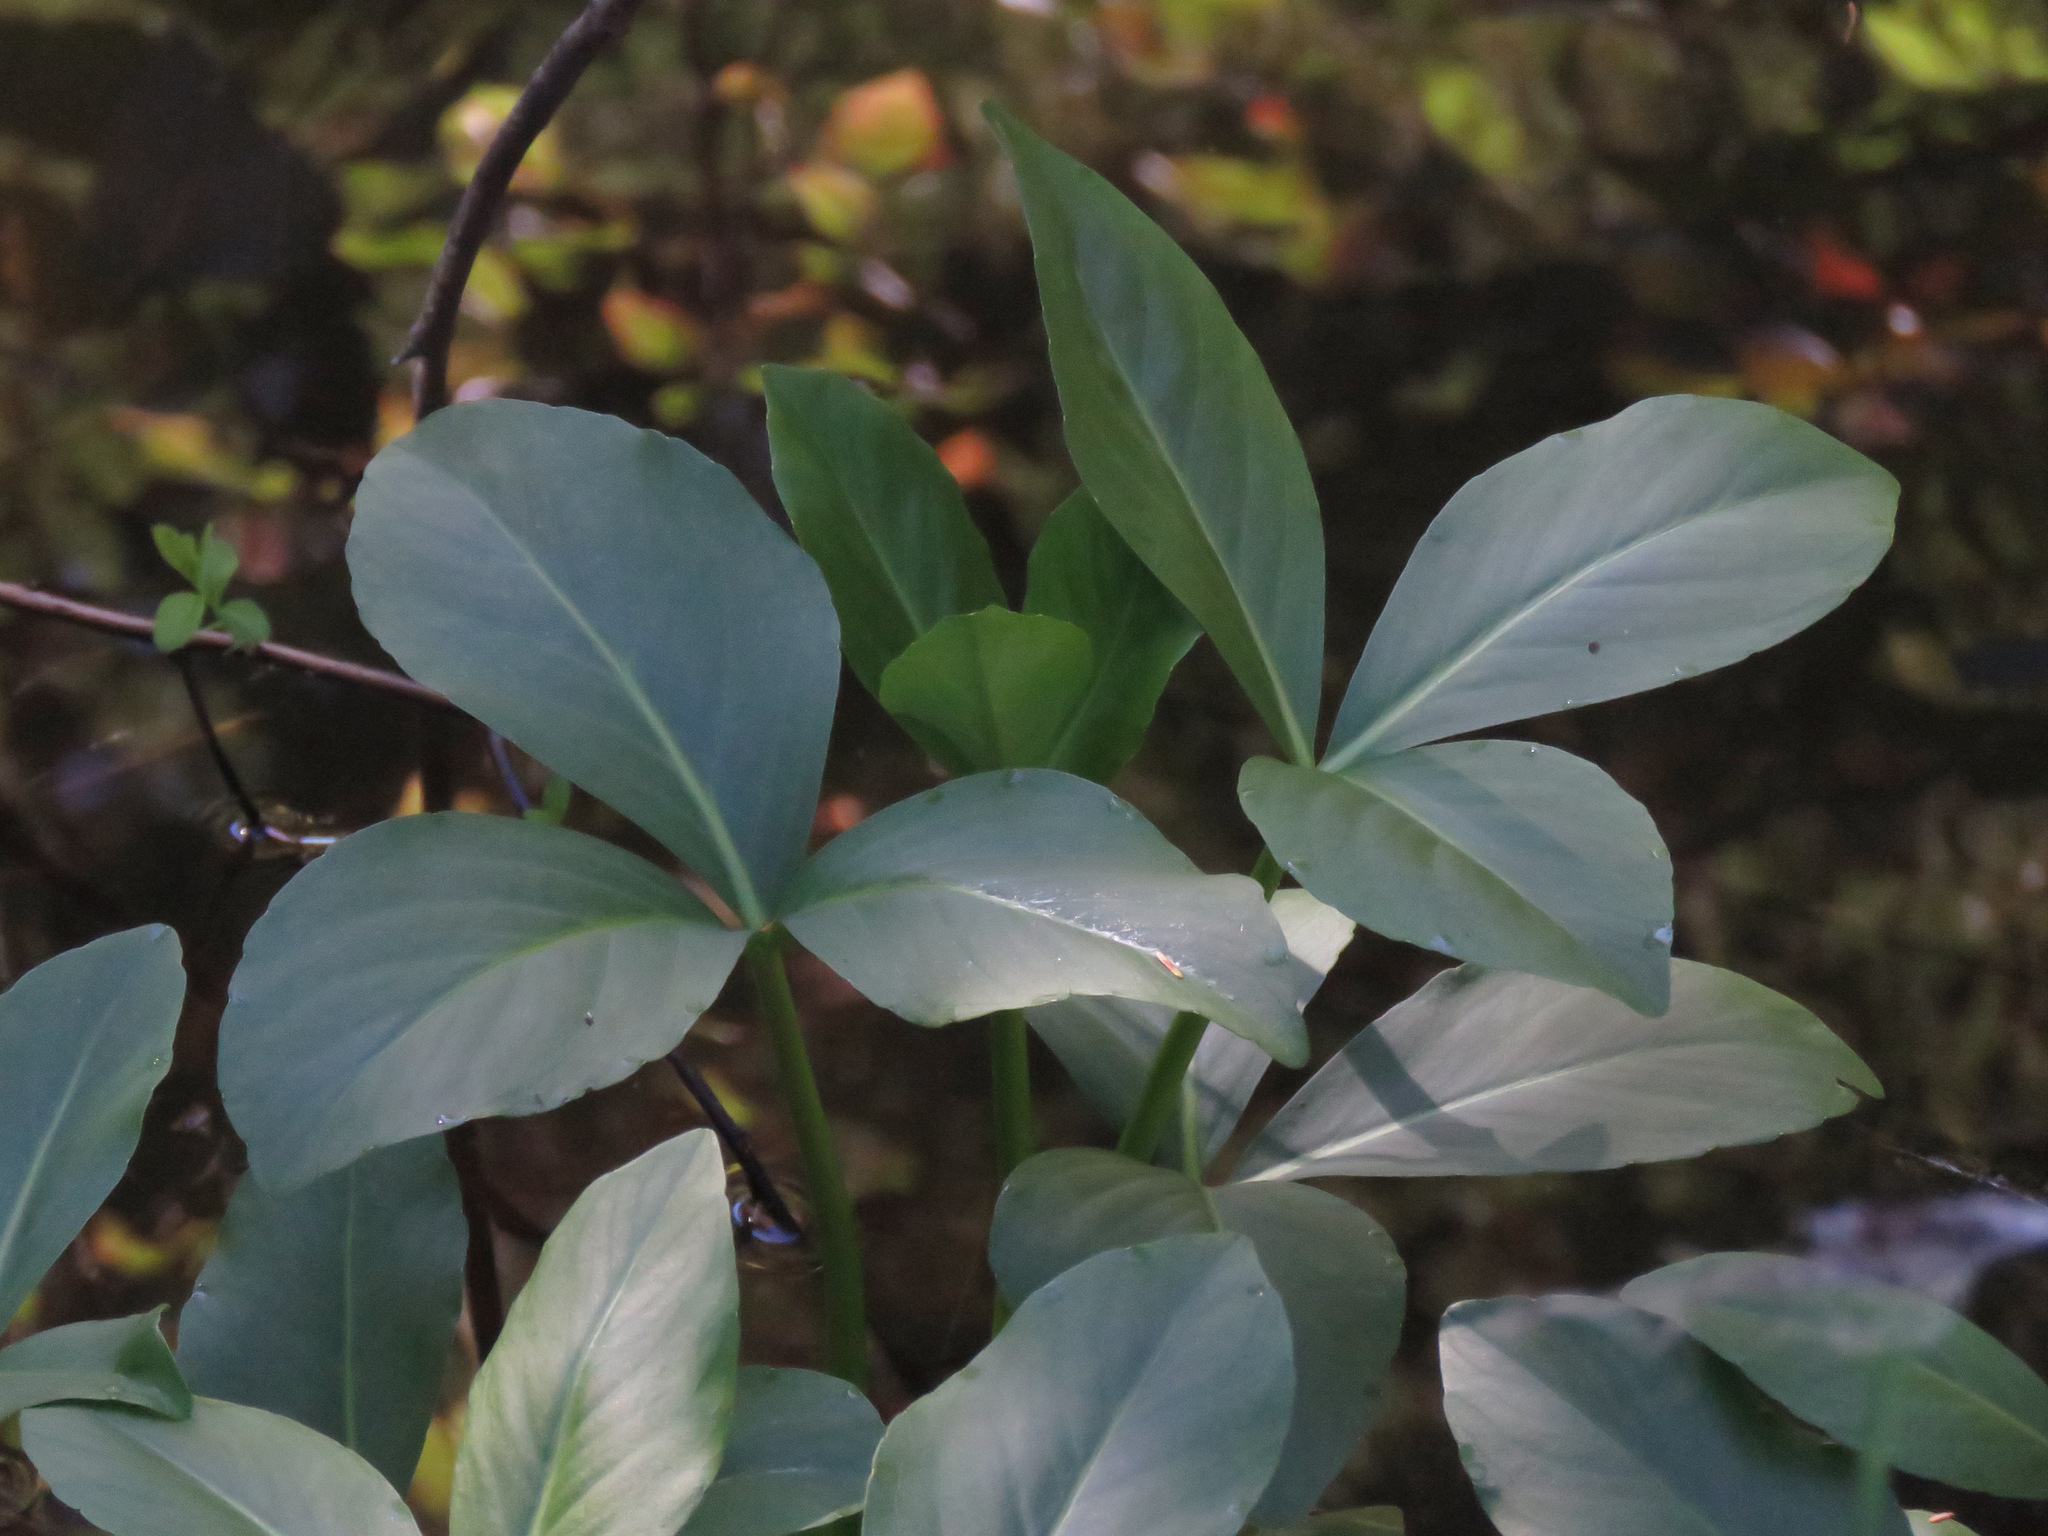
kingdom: Plantae
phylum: Tracheophyta
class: Magnoliopsida
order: Asterales
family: Menyanthaceae
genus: Menyanthes
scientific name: Menyanthes trifoliata
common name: Bogbean
